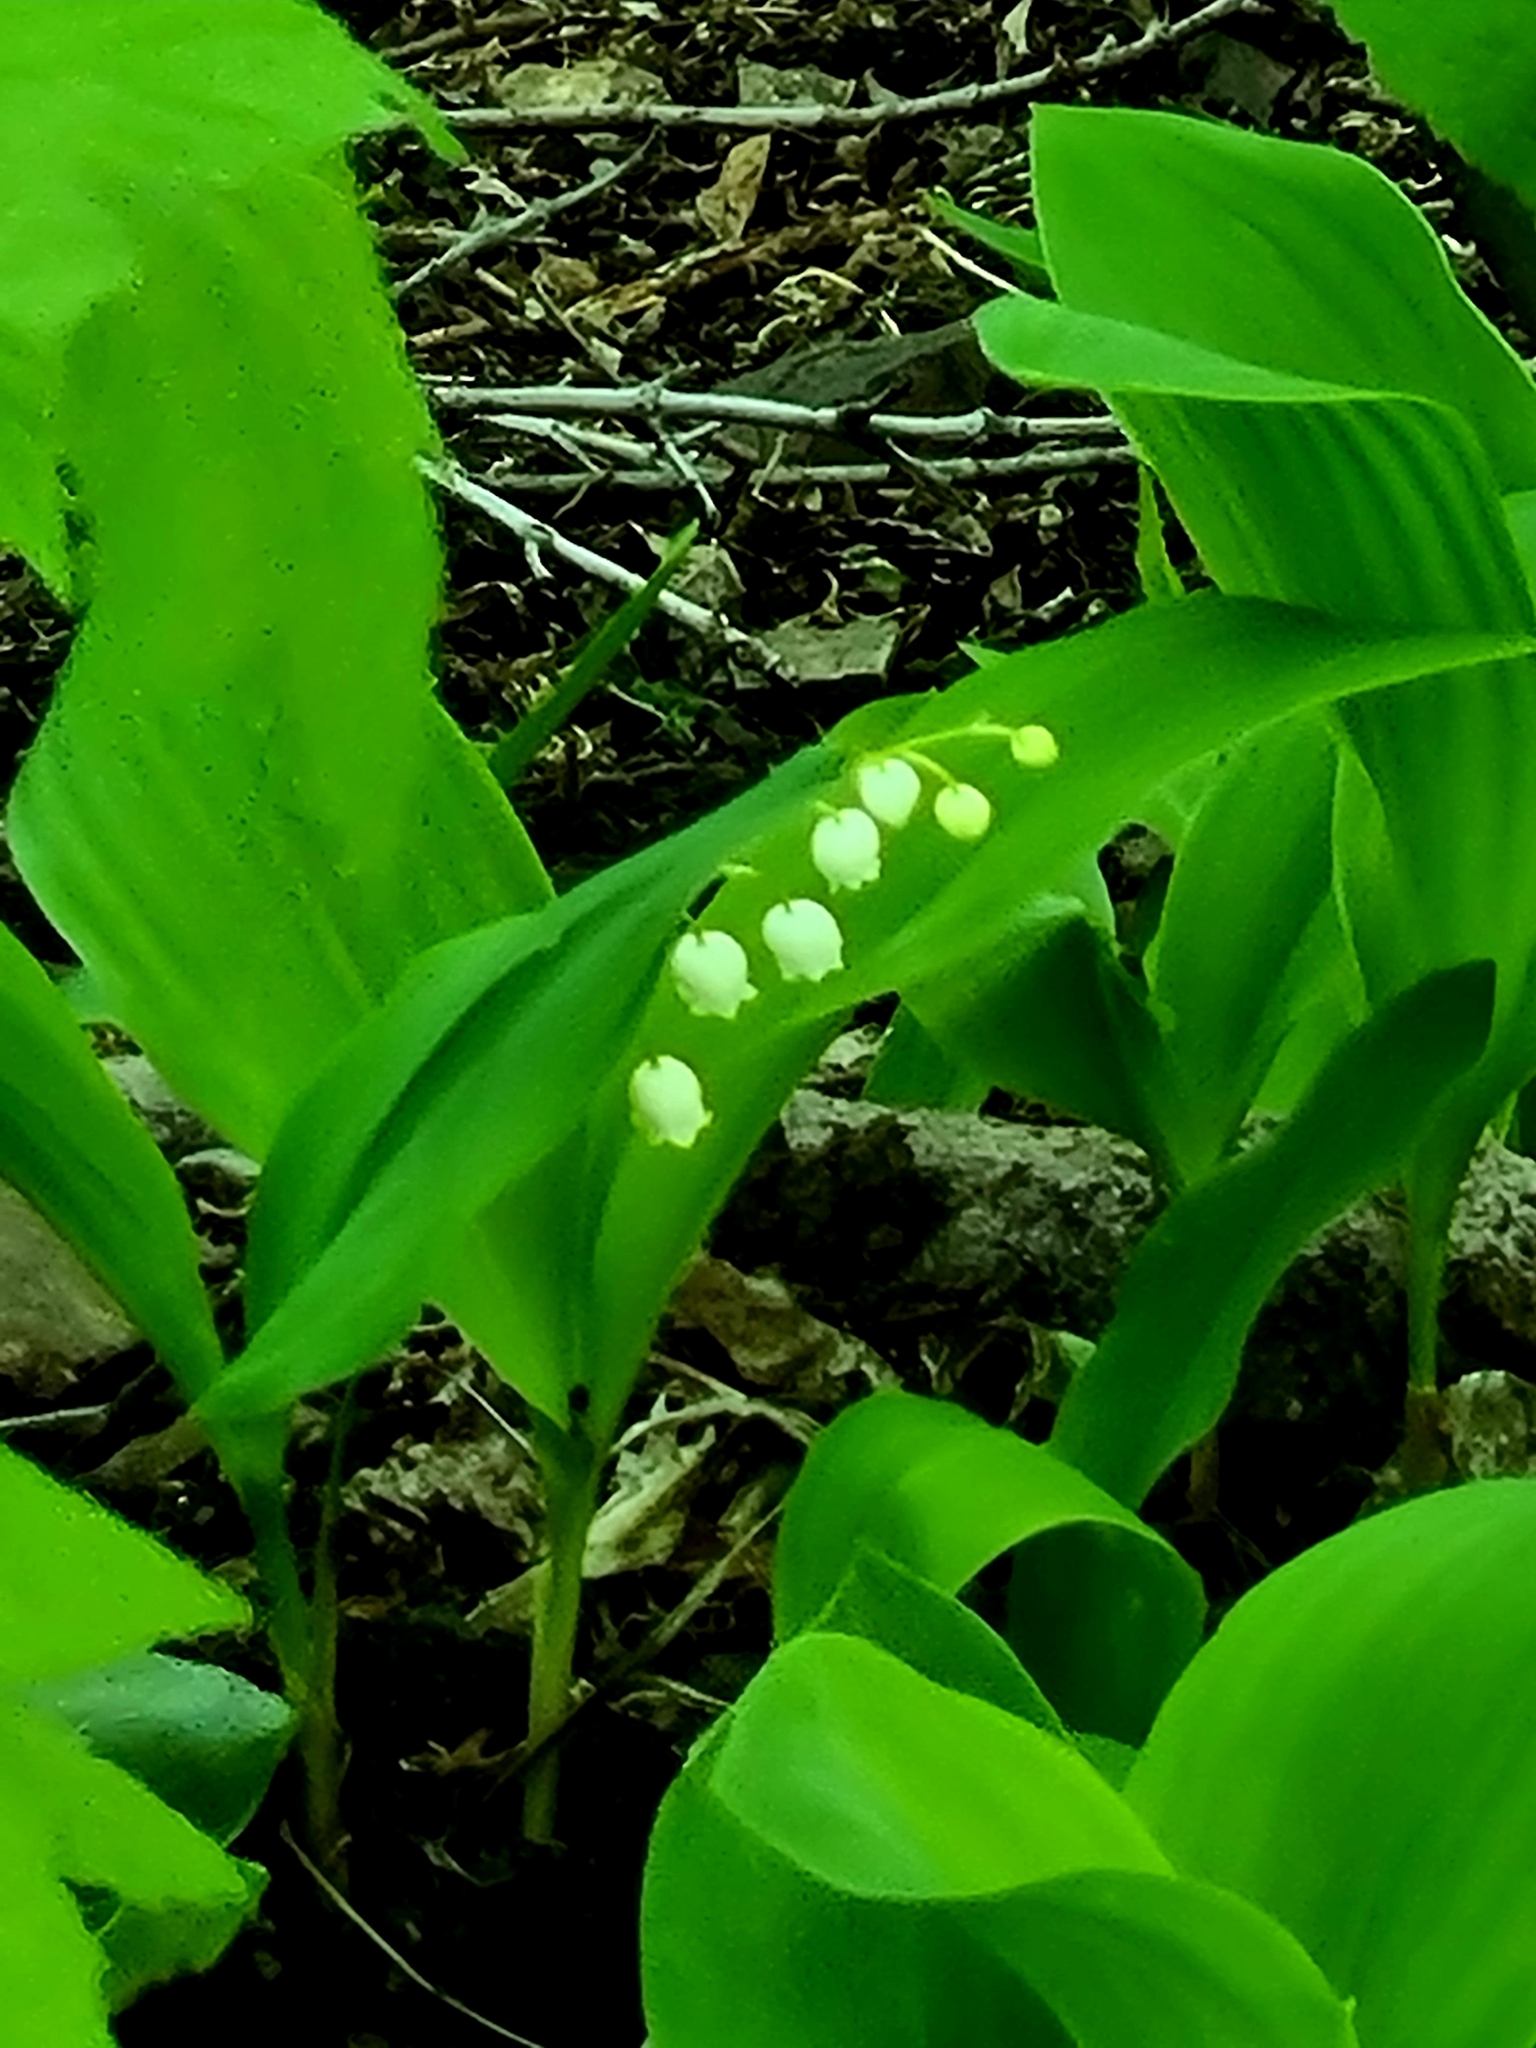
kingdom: Plantae
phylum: Tracheophyta
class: Liliopsida
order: Asparagales
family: Asparagaceae
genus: Convallaria
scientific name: Convallaria majalis
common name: Lily-of-the-valley
